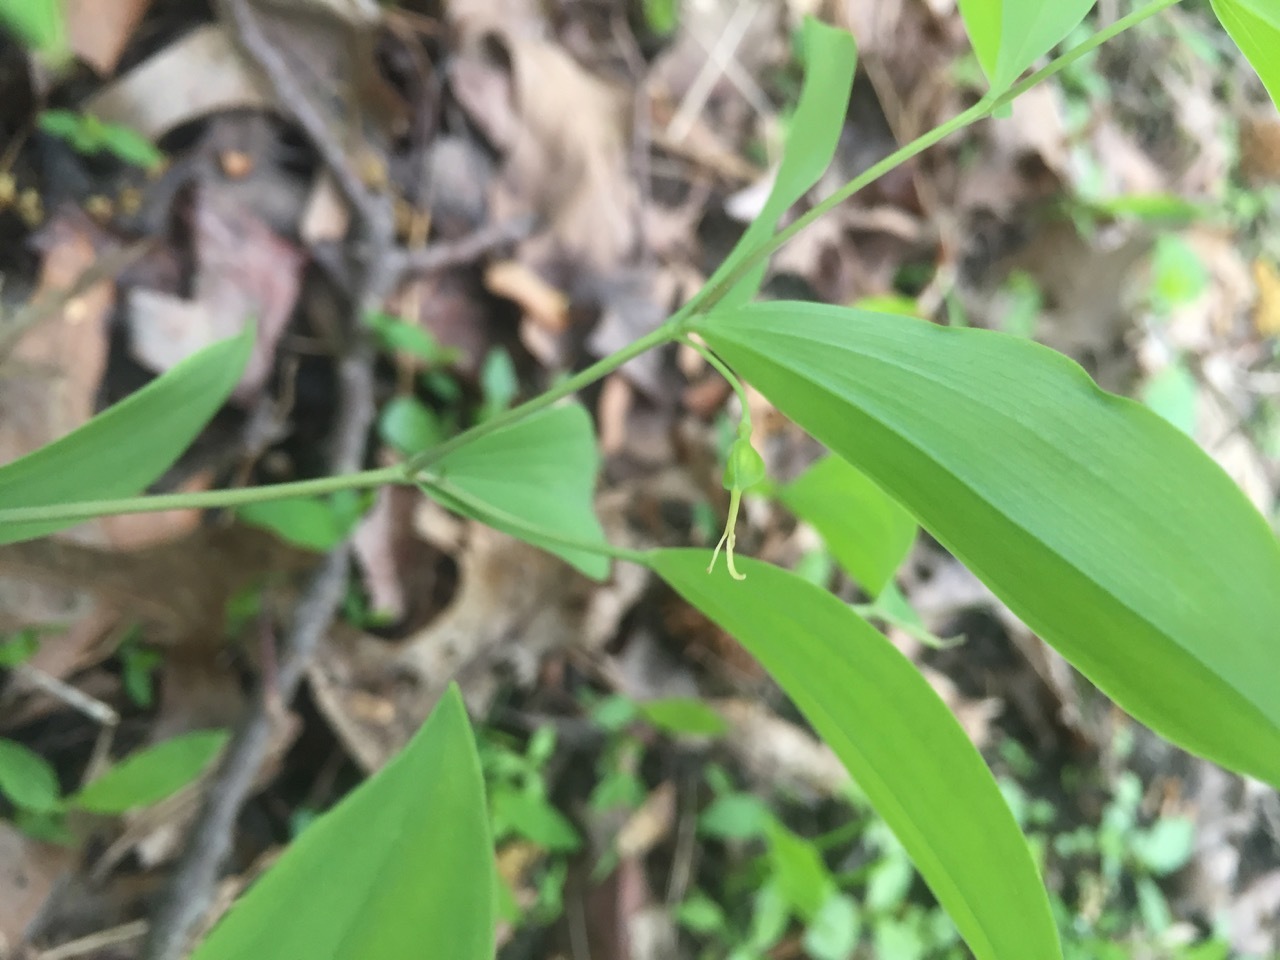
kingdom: Plantae
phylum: Tracheophyta
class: Liliopsida
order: Liliales
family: Colchicaceae
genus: Uvularia
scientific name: Uvularia sessilifolia
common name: Straw-lily
